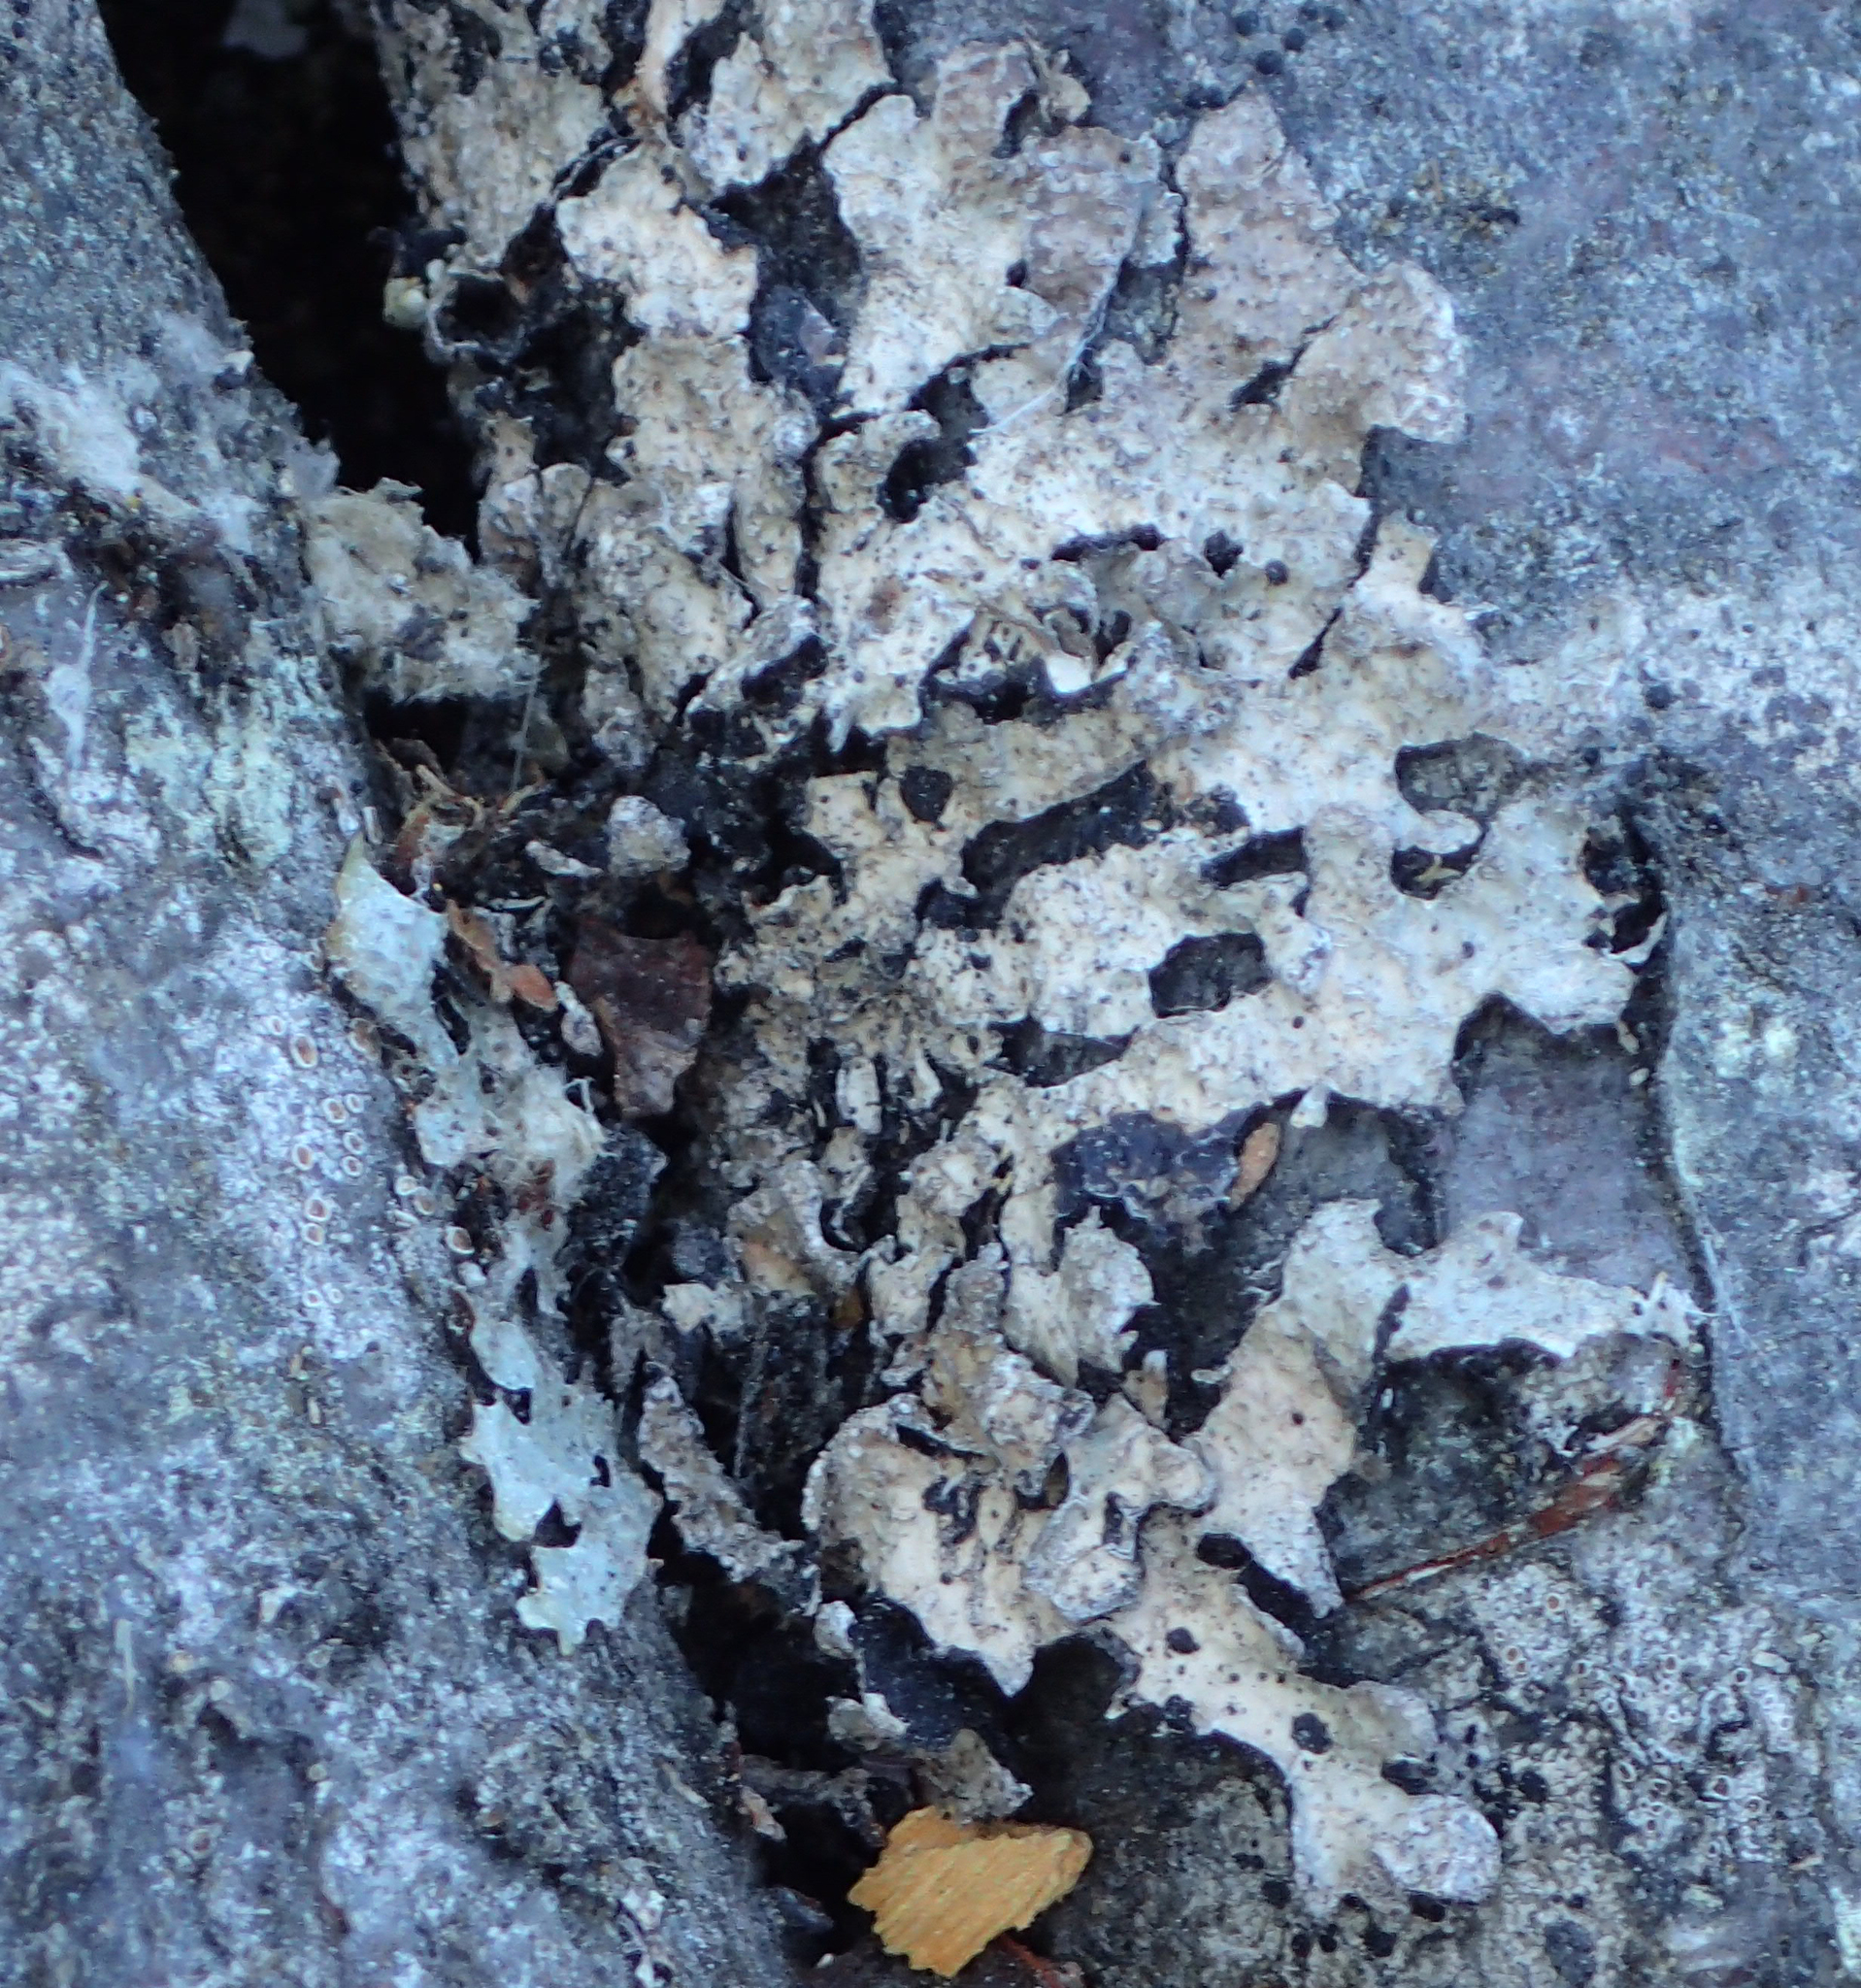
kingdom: Fungi
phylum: Ascomycota
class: Lecanoromycetes
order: Lecanorales
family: Parmeliaceae
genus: Parmelia
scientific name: Parmelia sulcata
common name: Netted shield lichen
